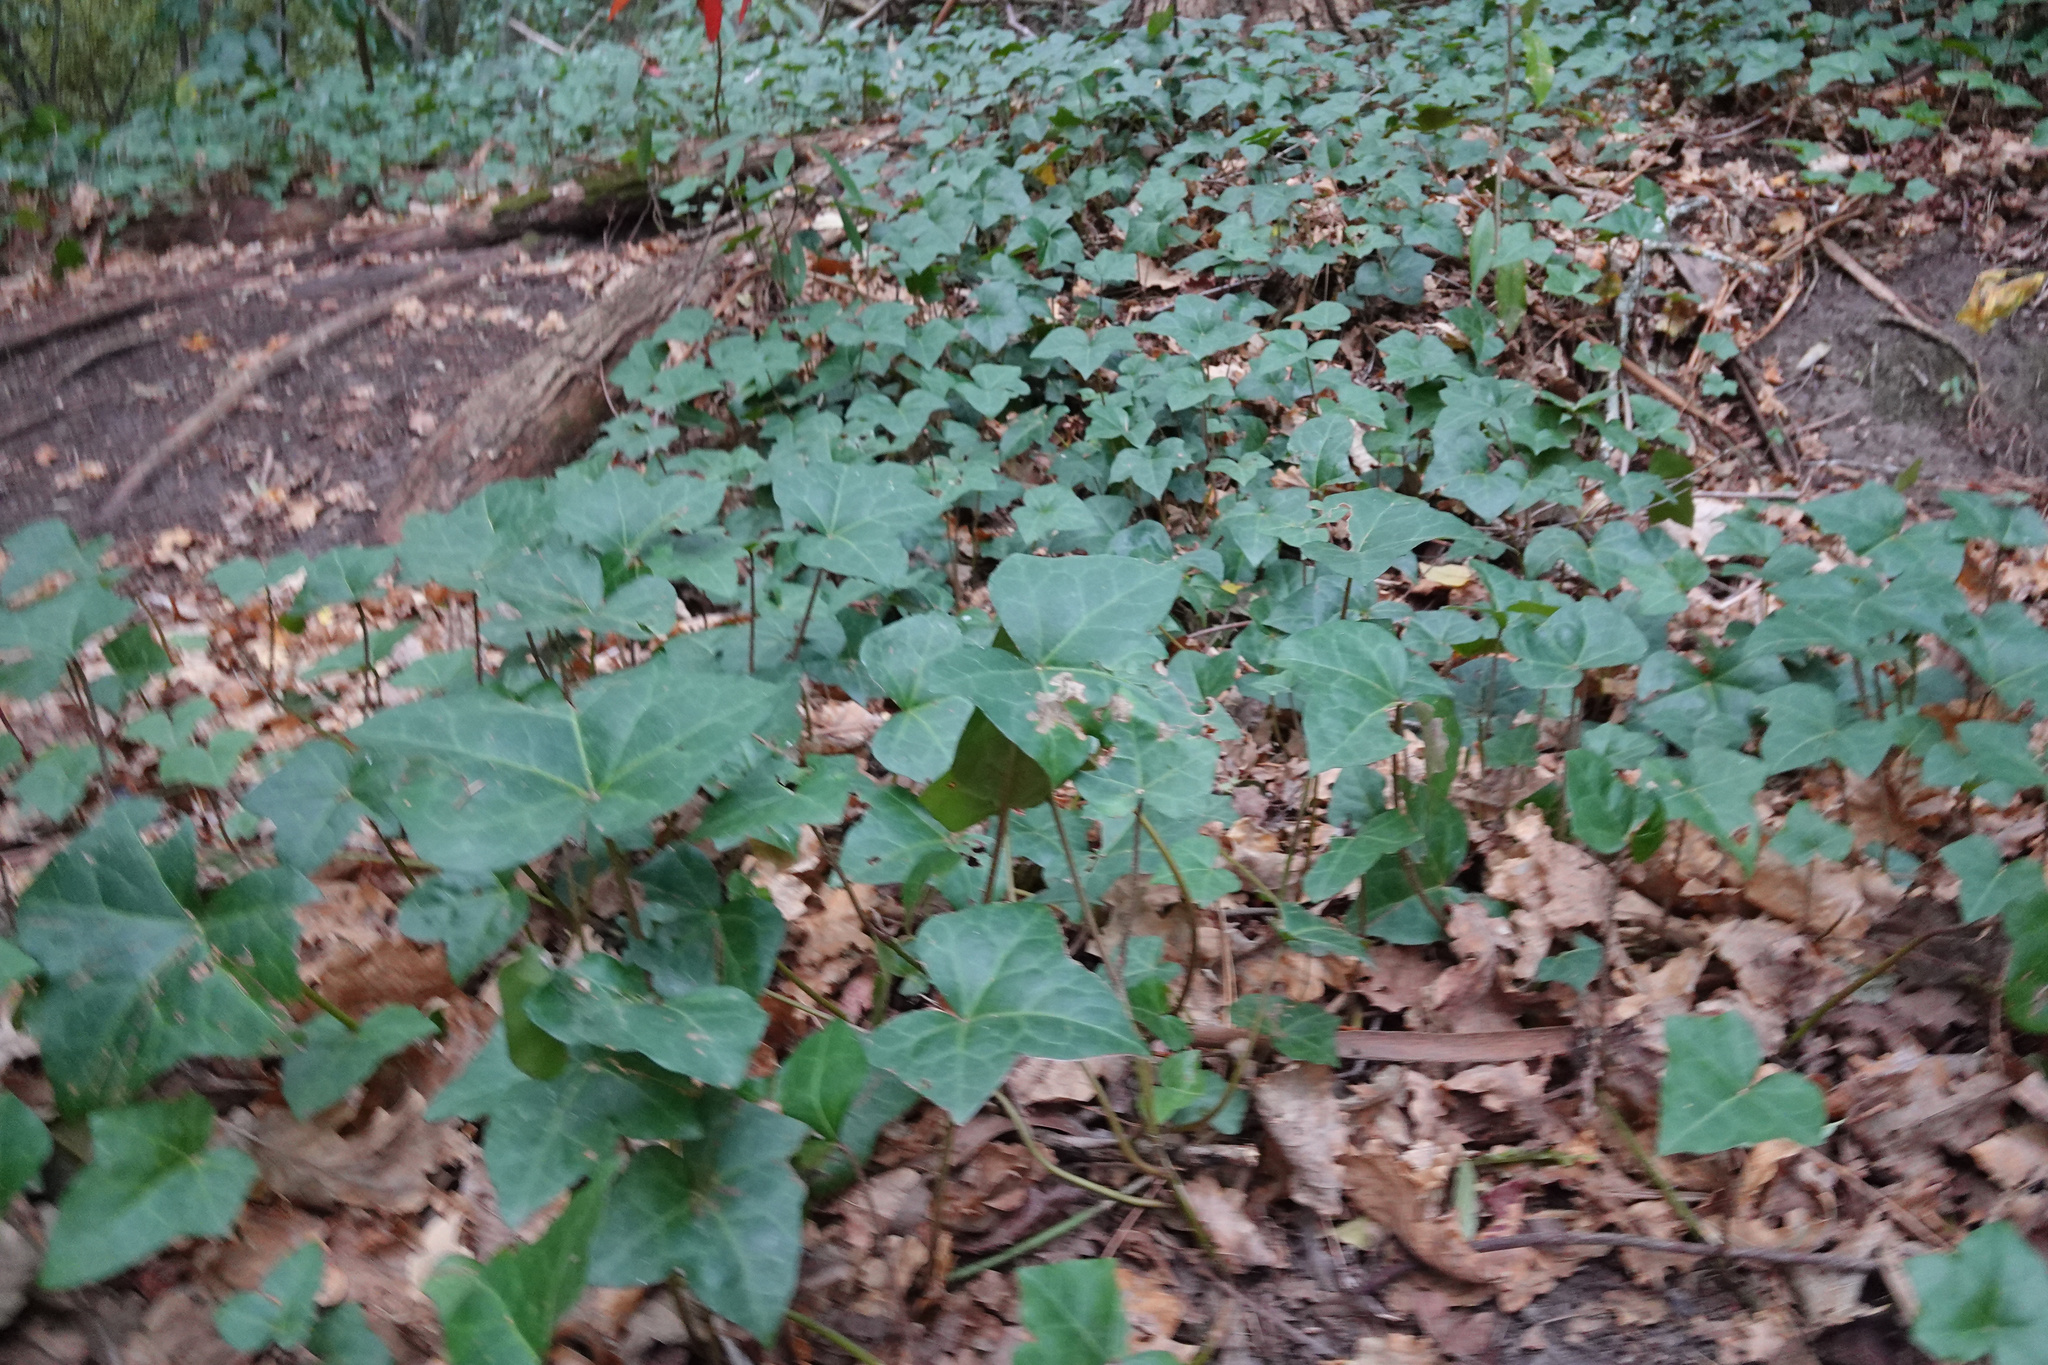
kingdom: Plantae
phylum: Tracheophyta
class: Magnoliopsida
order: Apiales
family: Araliaceae
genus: Hedera
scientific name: Hedera helix
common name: Ivy
